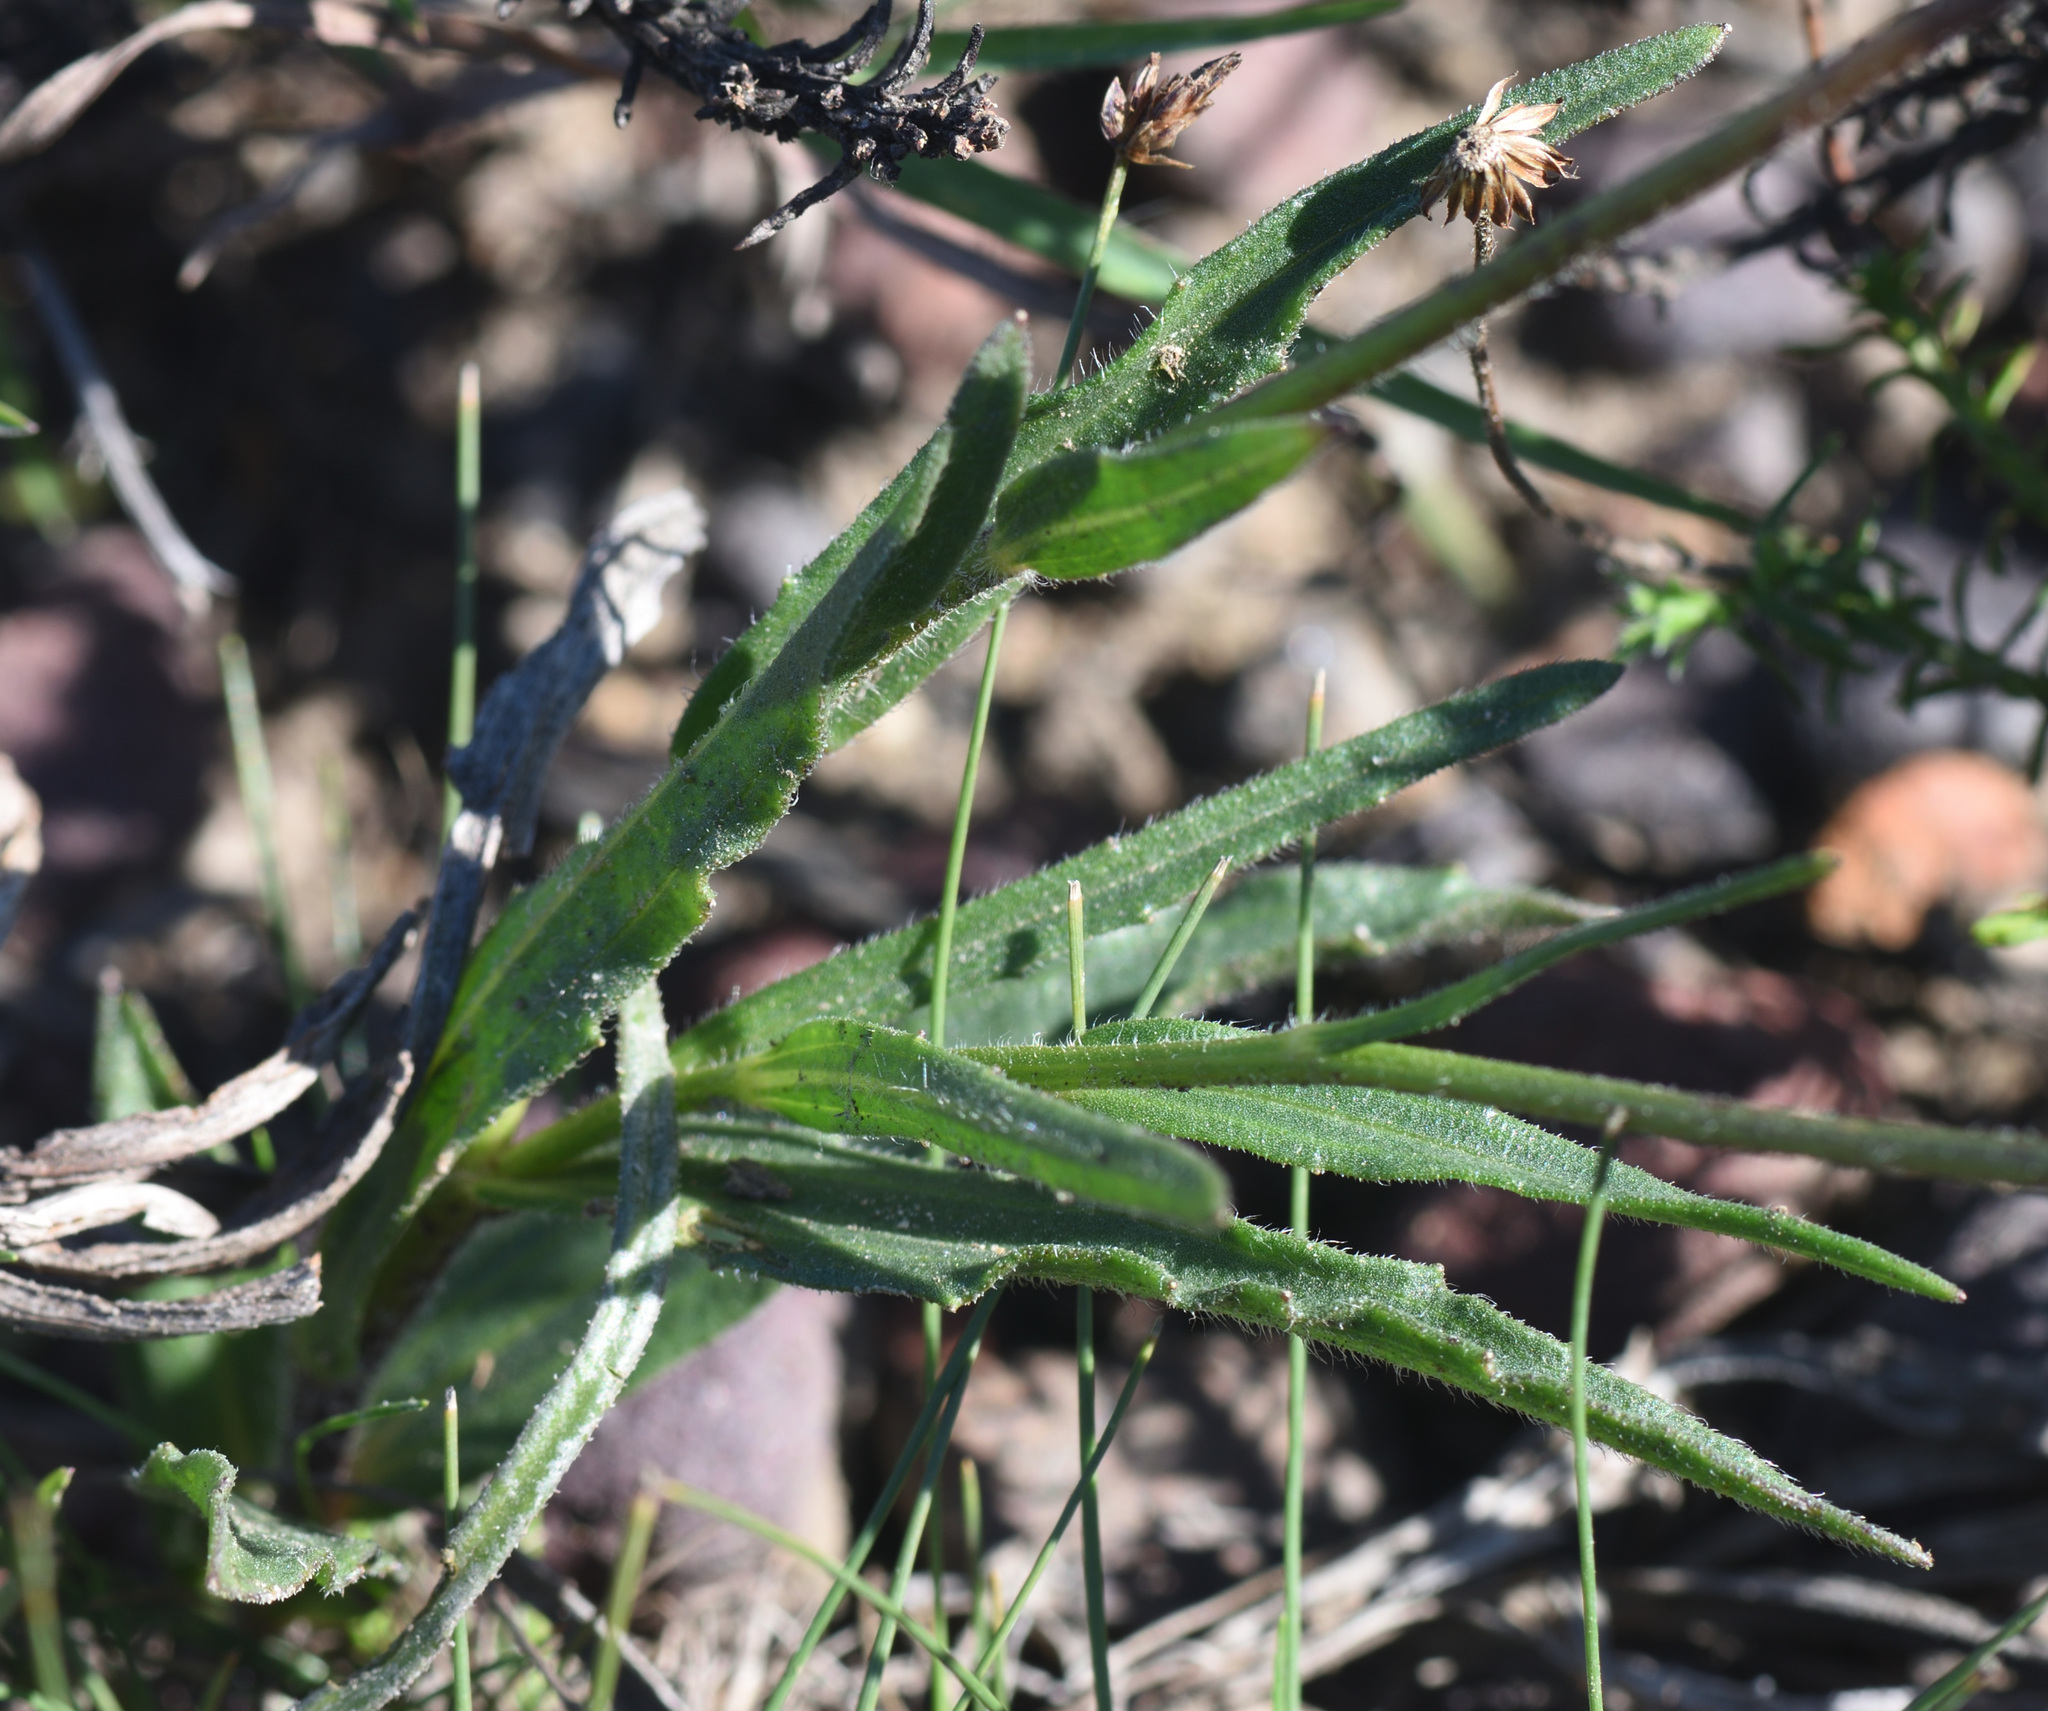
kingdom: Plantae
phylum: Tracheophyta
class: Magnoliopsida
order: Asterales
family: Asteraceae
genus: Afroaster
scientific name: Afroaster hispidus
